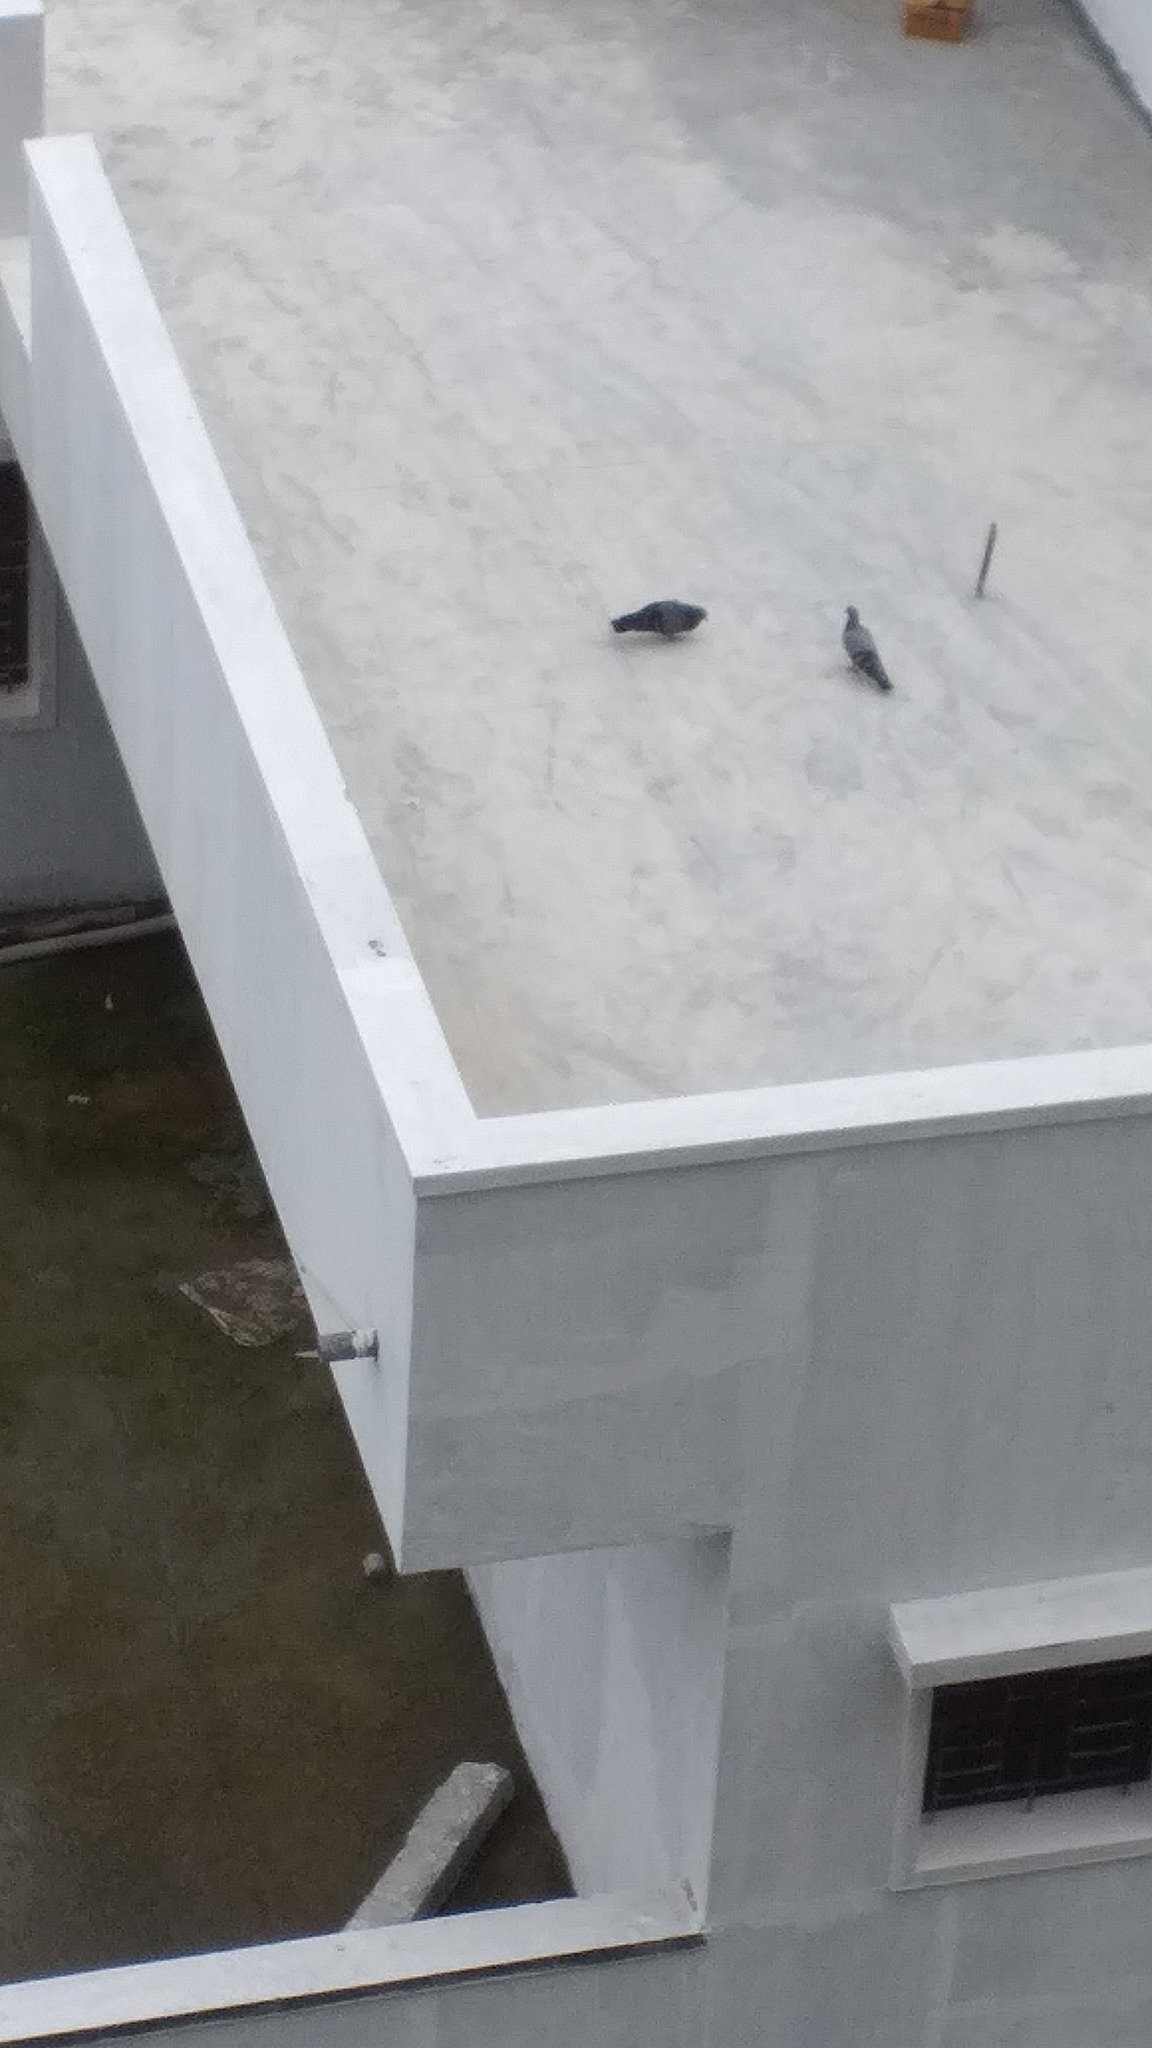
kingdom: Animalia
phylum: Chordata
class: Aves
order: Columbiformes
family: Columbidae
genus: Columba
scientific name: Columba livia
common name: Rock pigeon
